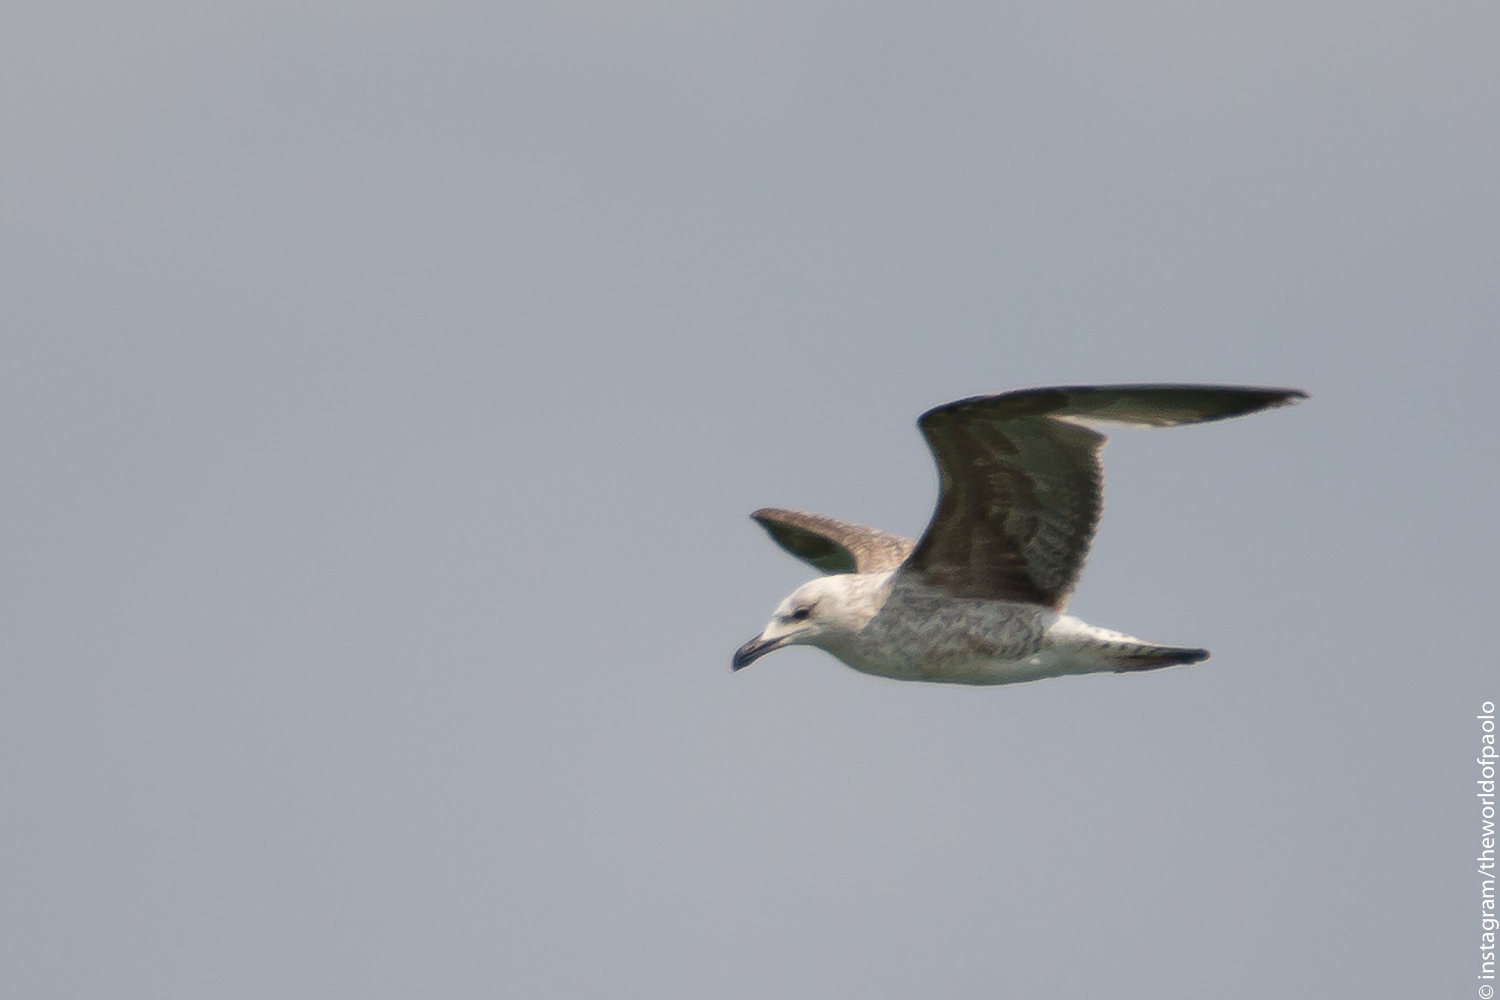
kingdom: Animalia
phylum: Chordata
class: Aves
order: Charadriiformes
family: Laridae
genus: Larus
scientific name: Larus michahellis
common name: Yellow-legged gull
